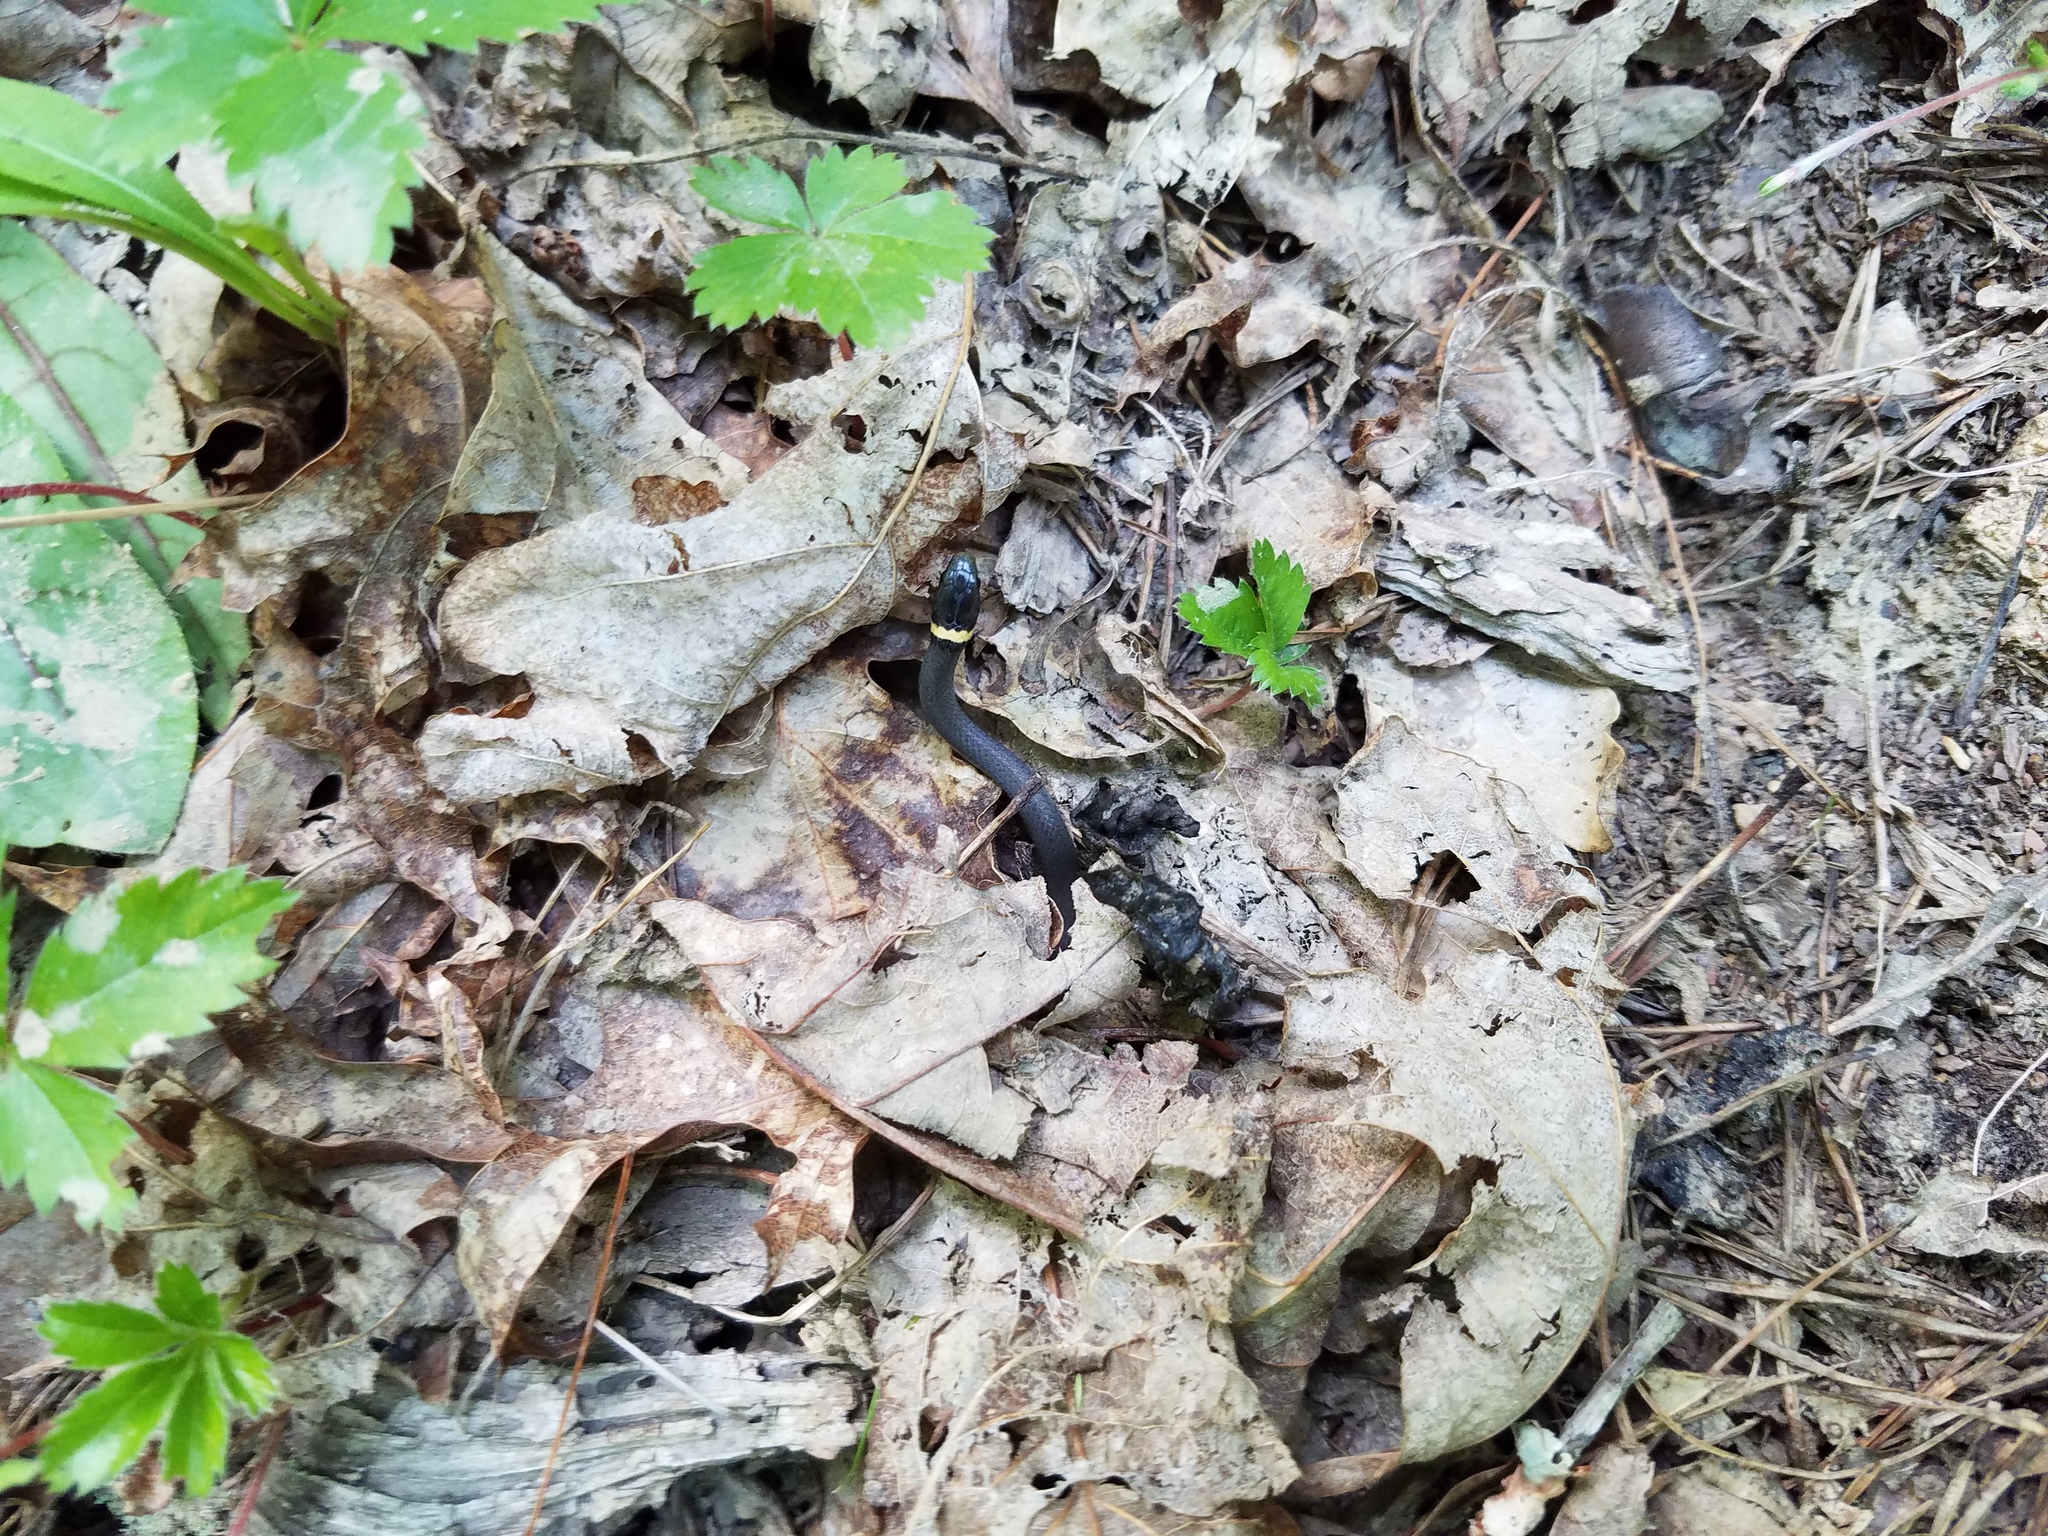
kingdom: Animalia
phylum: Chordata
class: Squamata
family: Colubridae
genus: Diadophis
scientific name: Diadophis punctatus
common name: Ringneck snake
